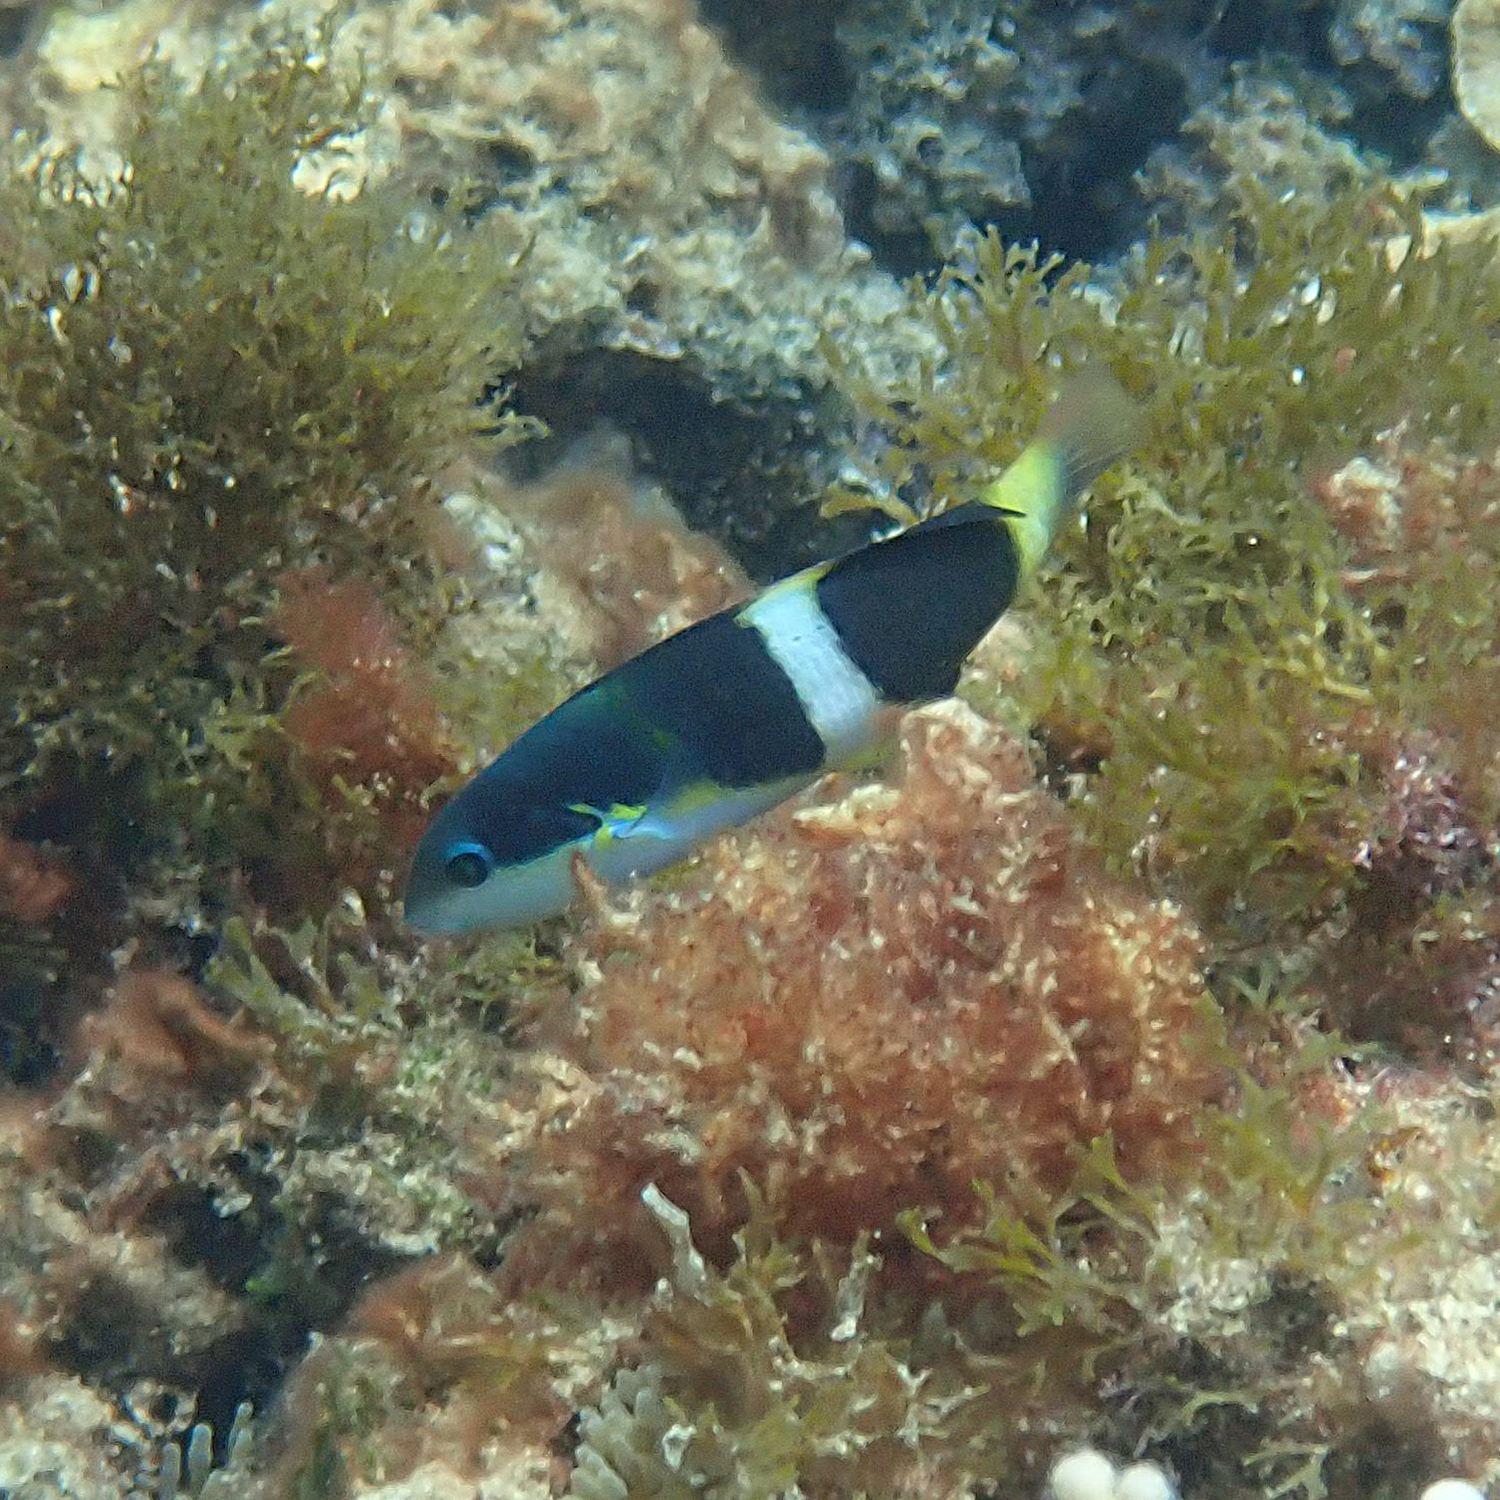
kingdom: Animalia
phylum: Chordata
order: Perciformes
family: Labridae
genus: Thalassoma
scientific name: Thalassoma nigrofasciatum
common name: Black-barred wrasse
